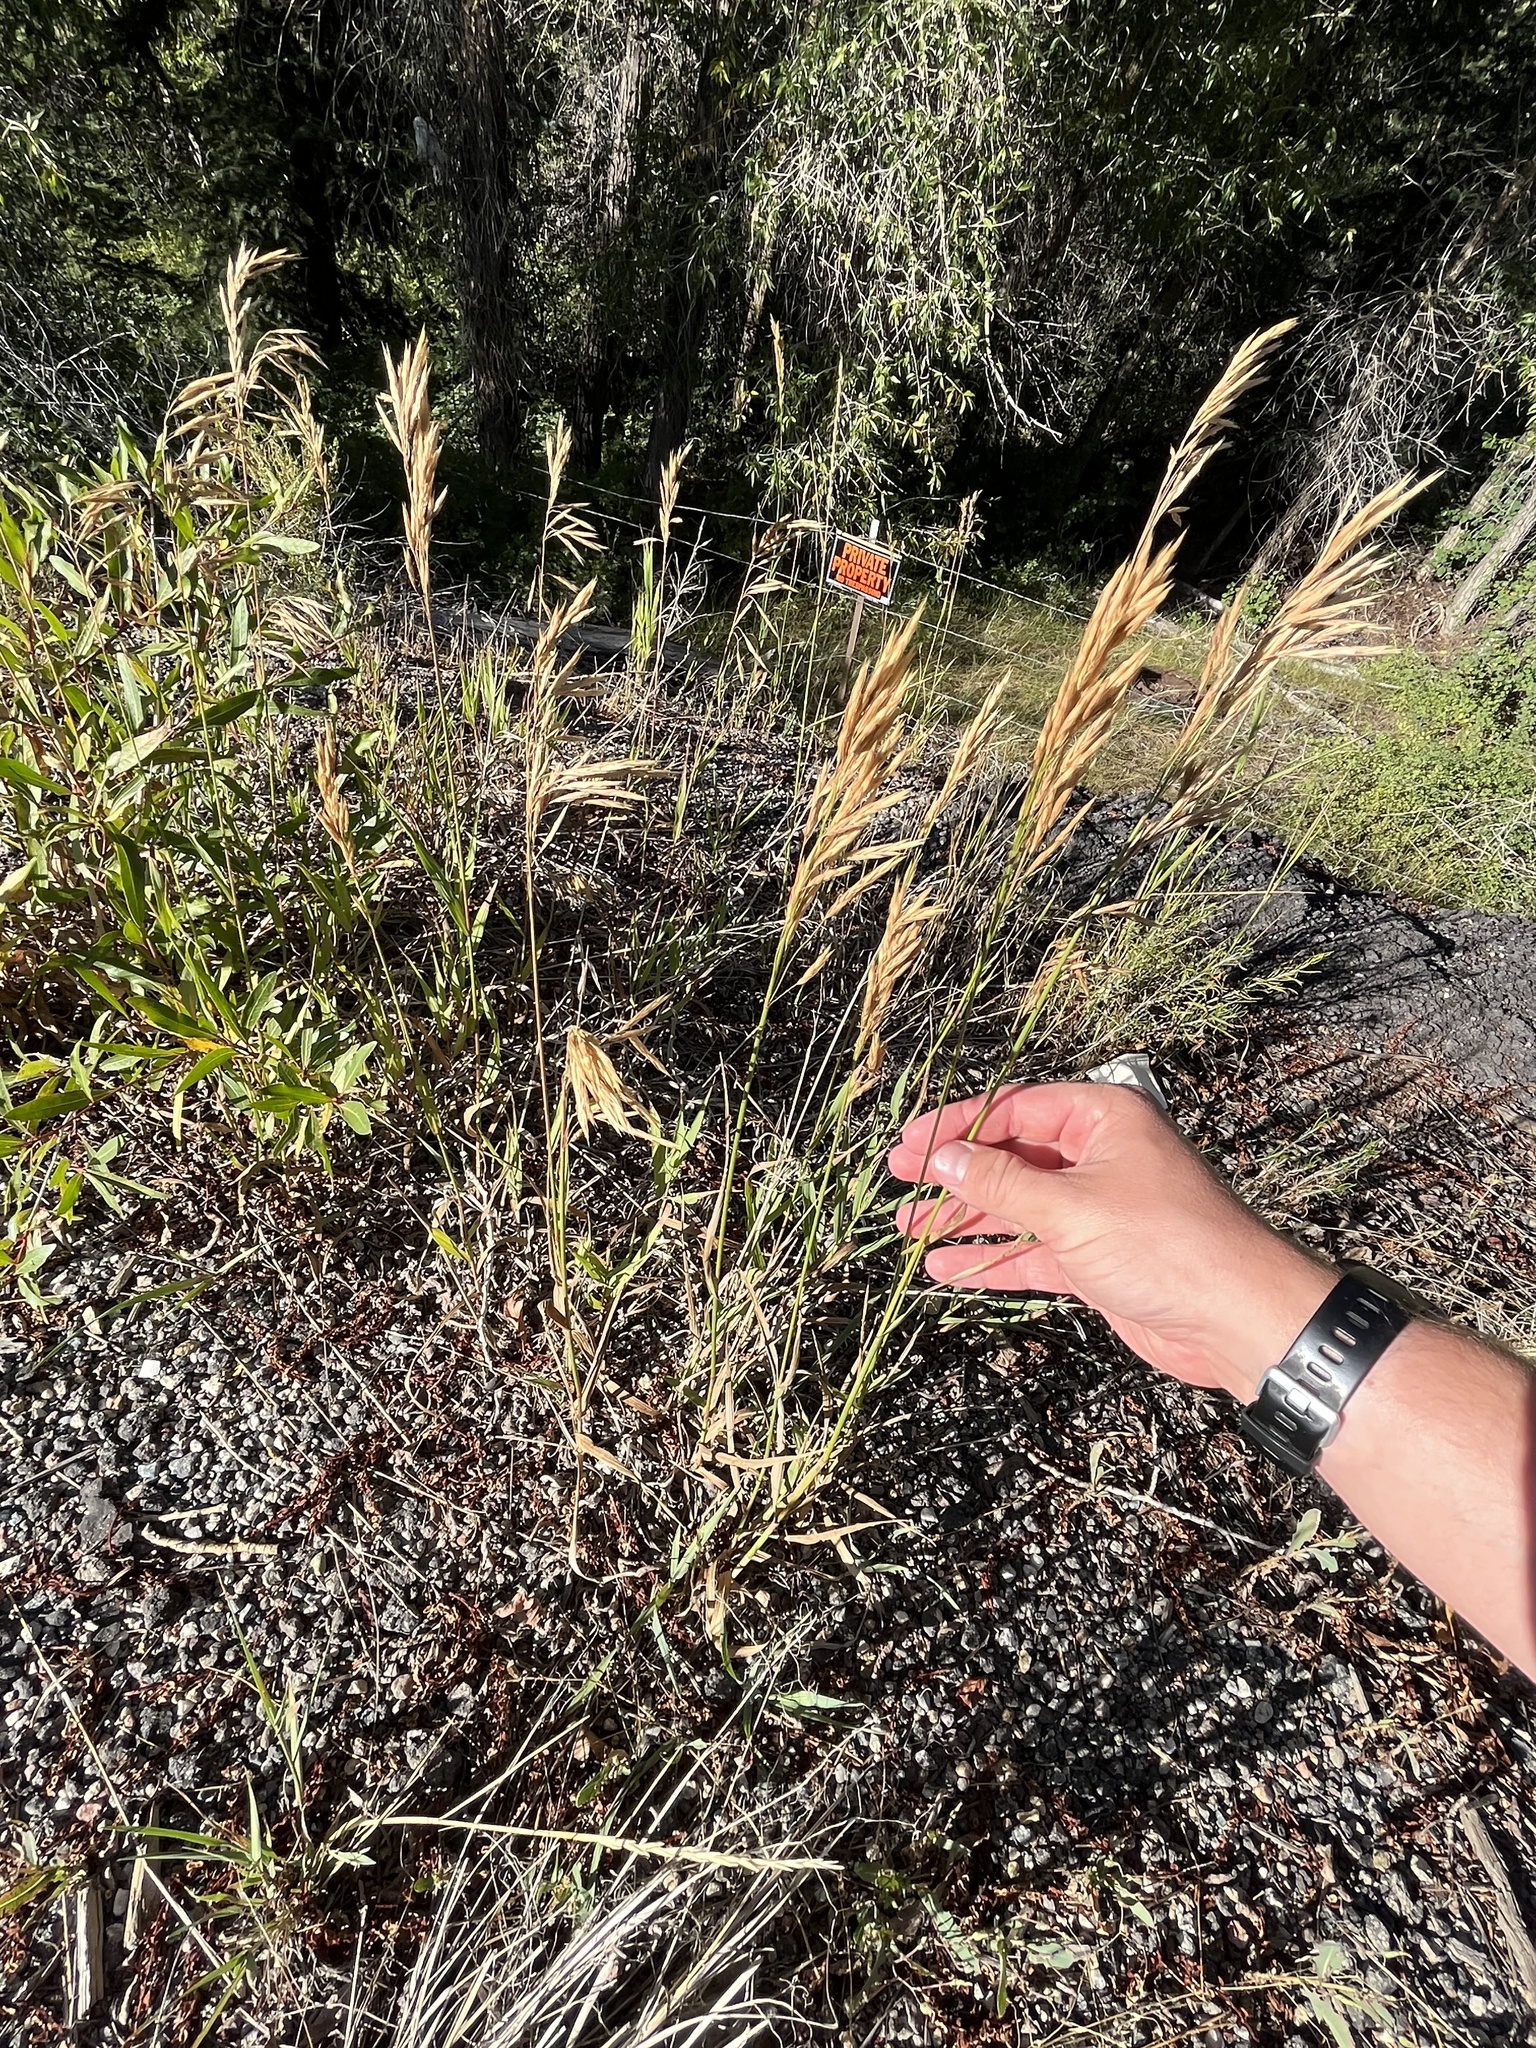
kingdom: Plantae
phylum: Tracheophyta
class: Liliopsida
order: Poales
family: Poaceae
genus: Bromus
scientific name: Bromus inermis
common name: Smooth brome
